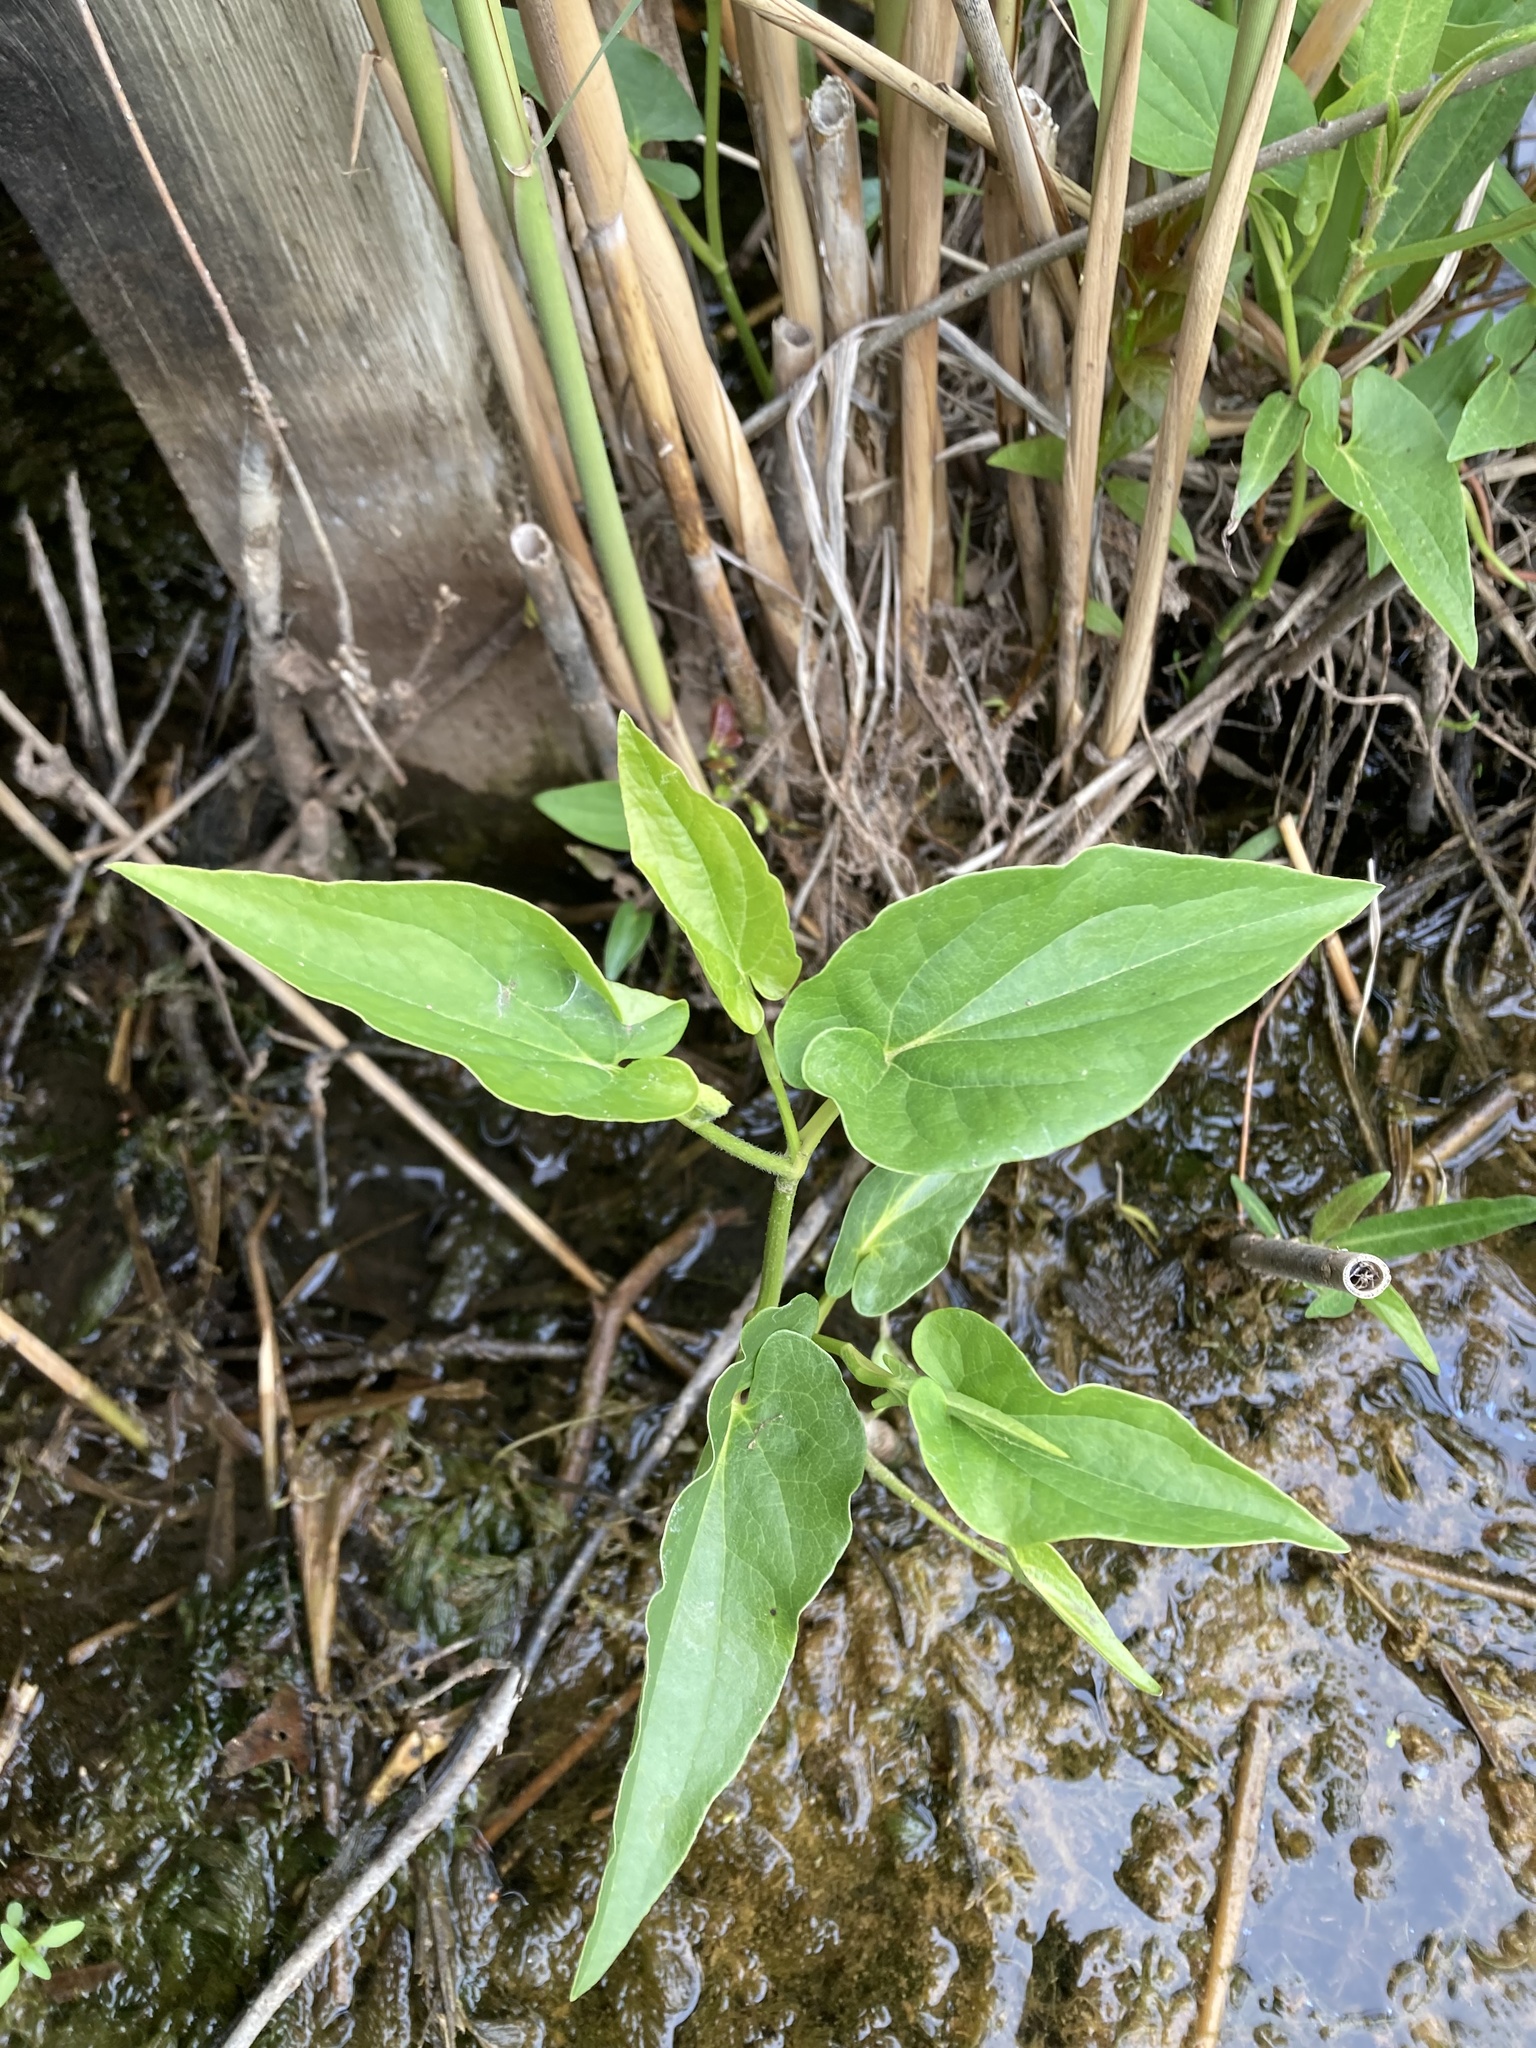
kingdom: Plantae
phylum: Tracheophyta
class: Magnoliopsida
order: Piperales
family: Saururaceae
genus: Saururus
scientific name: Saururus cernuus
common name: Lizard's-tail
